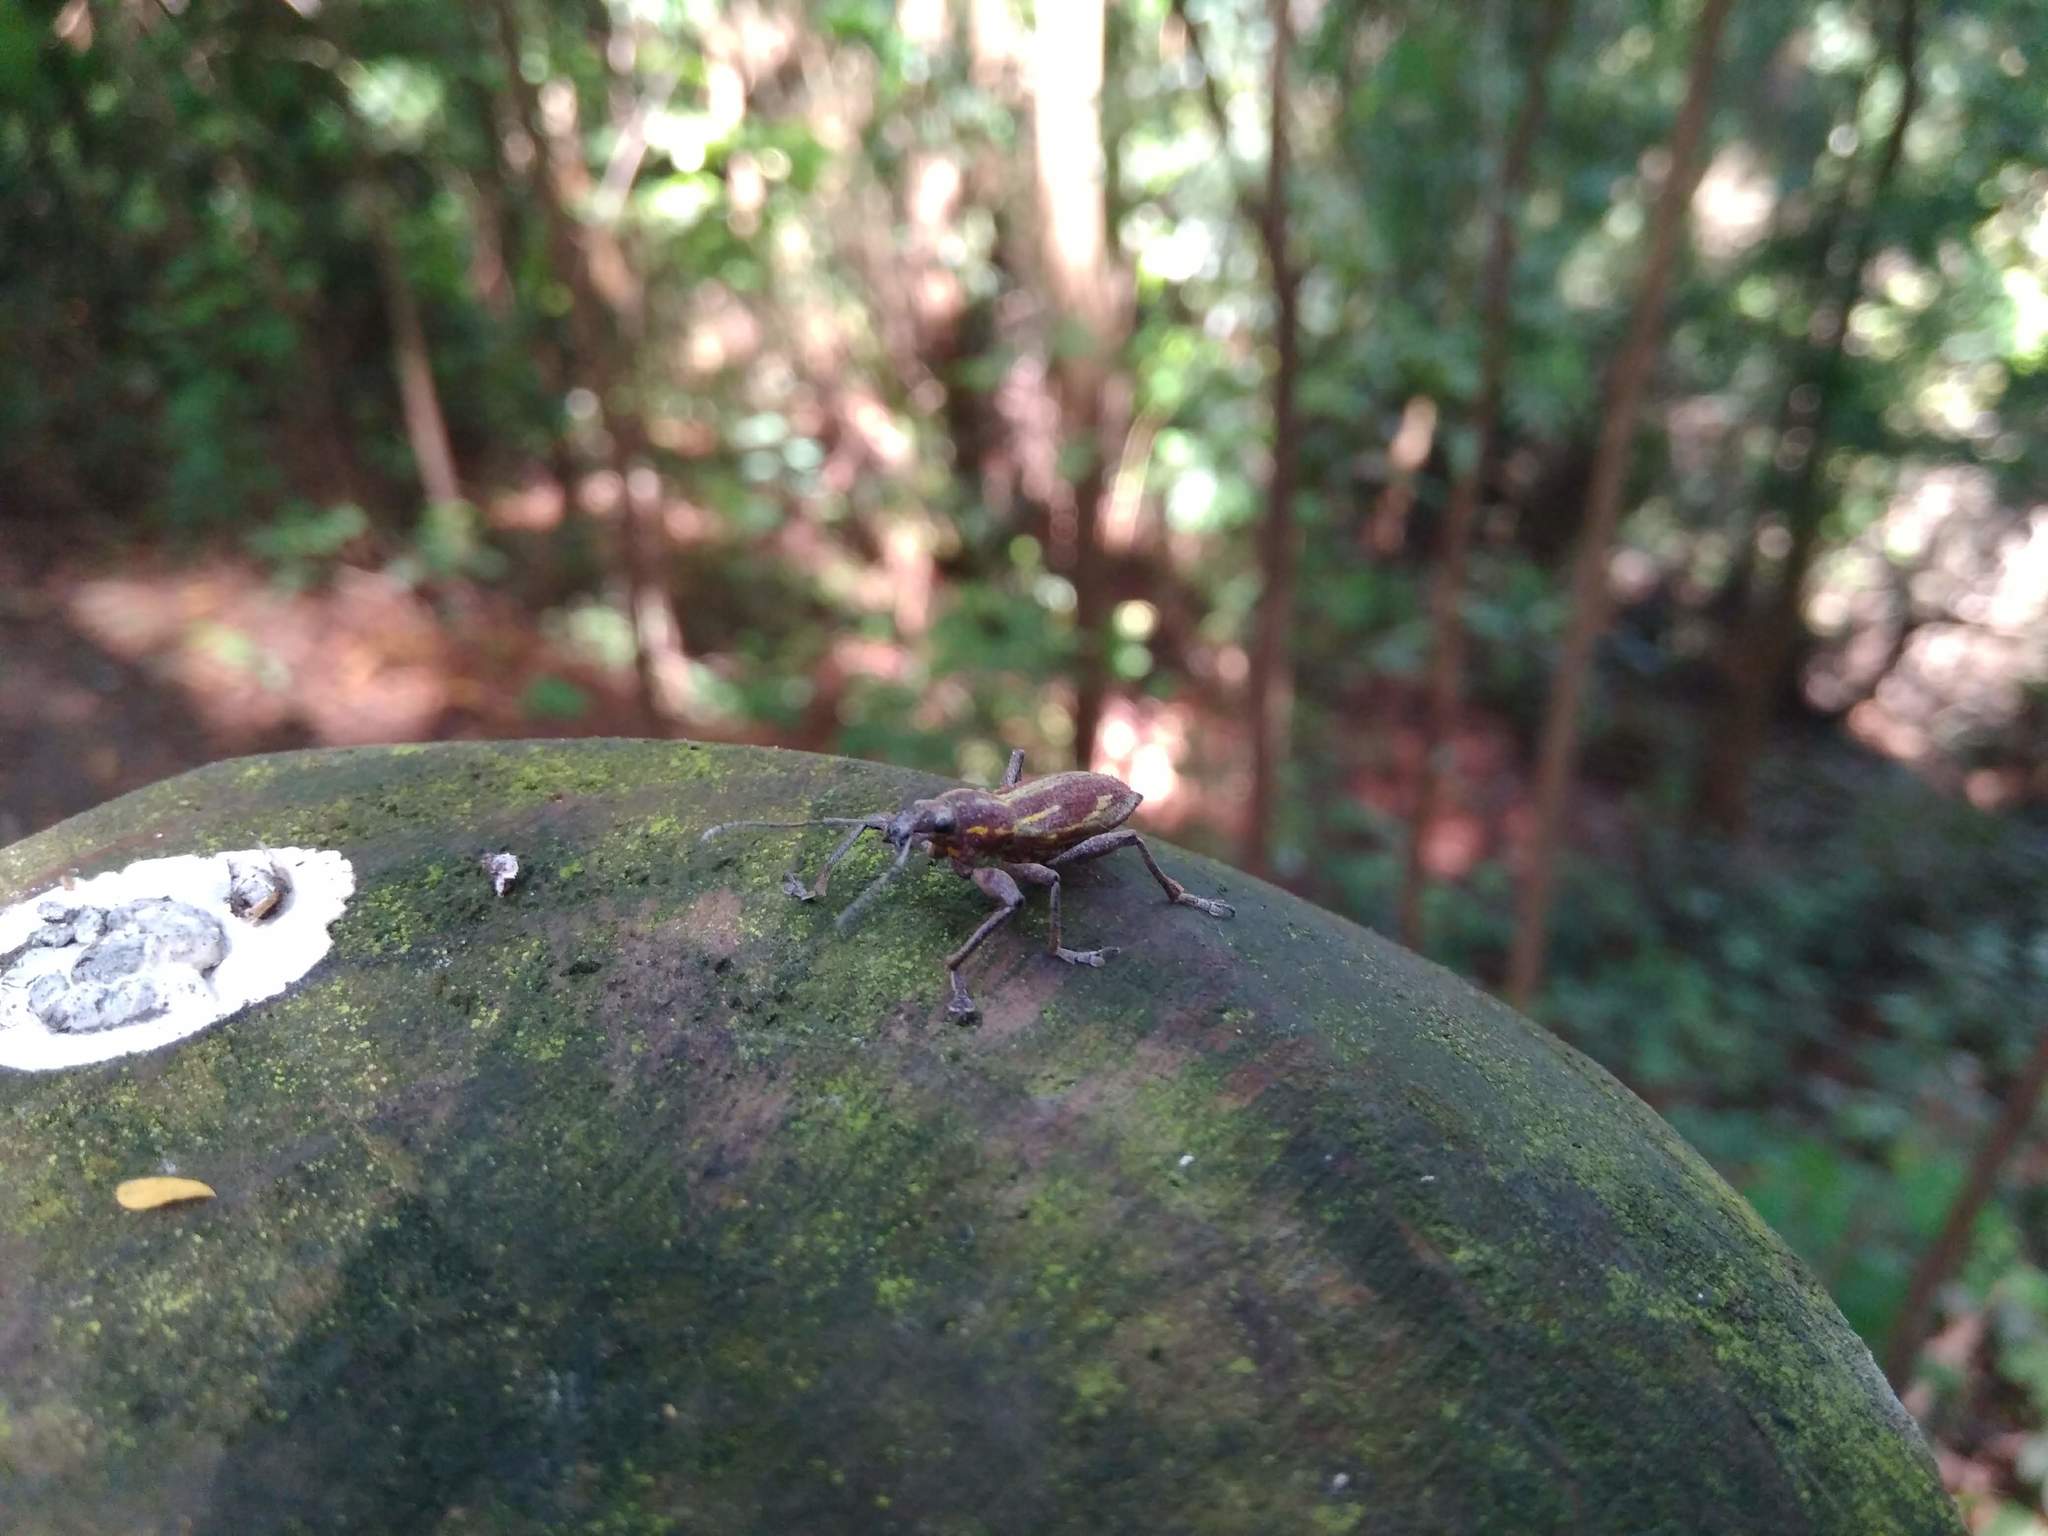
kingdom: Animalia
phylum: Arthropoda
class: Insecta
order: Coleoptera
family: Curculionidae
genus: Naupactus
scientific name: Naupactus xanthographus
